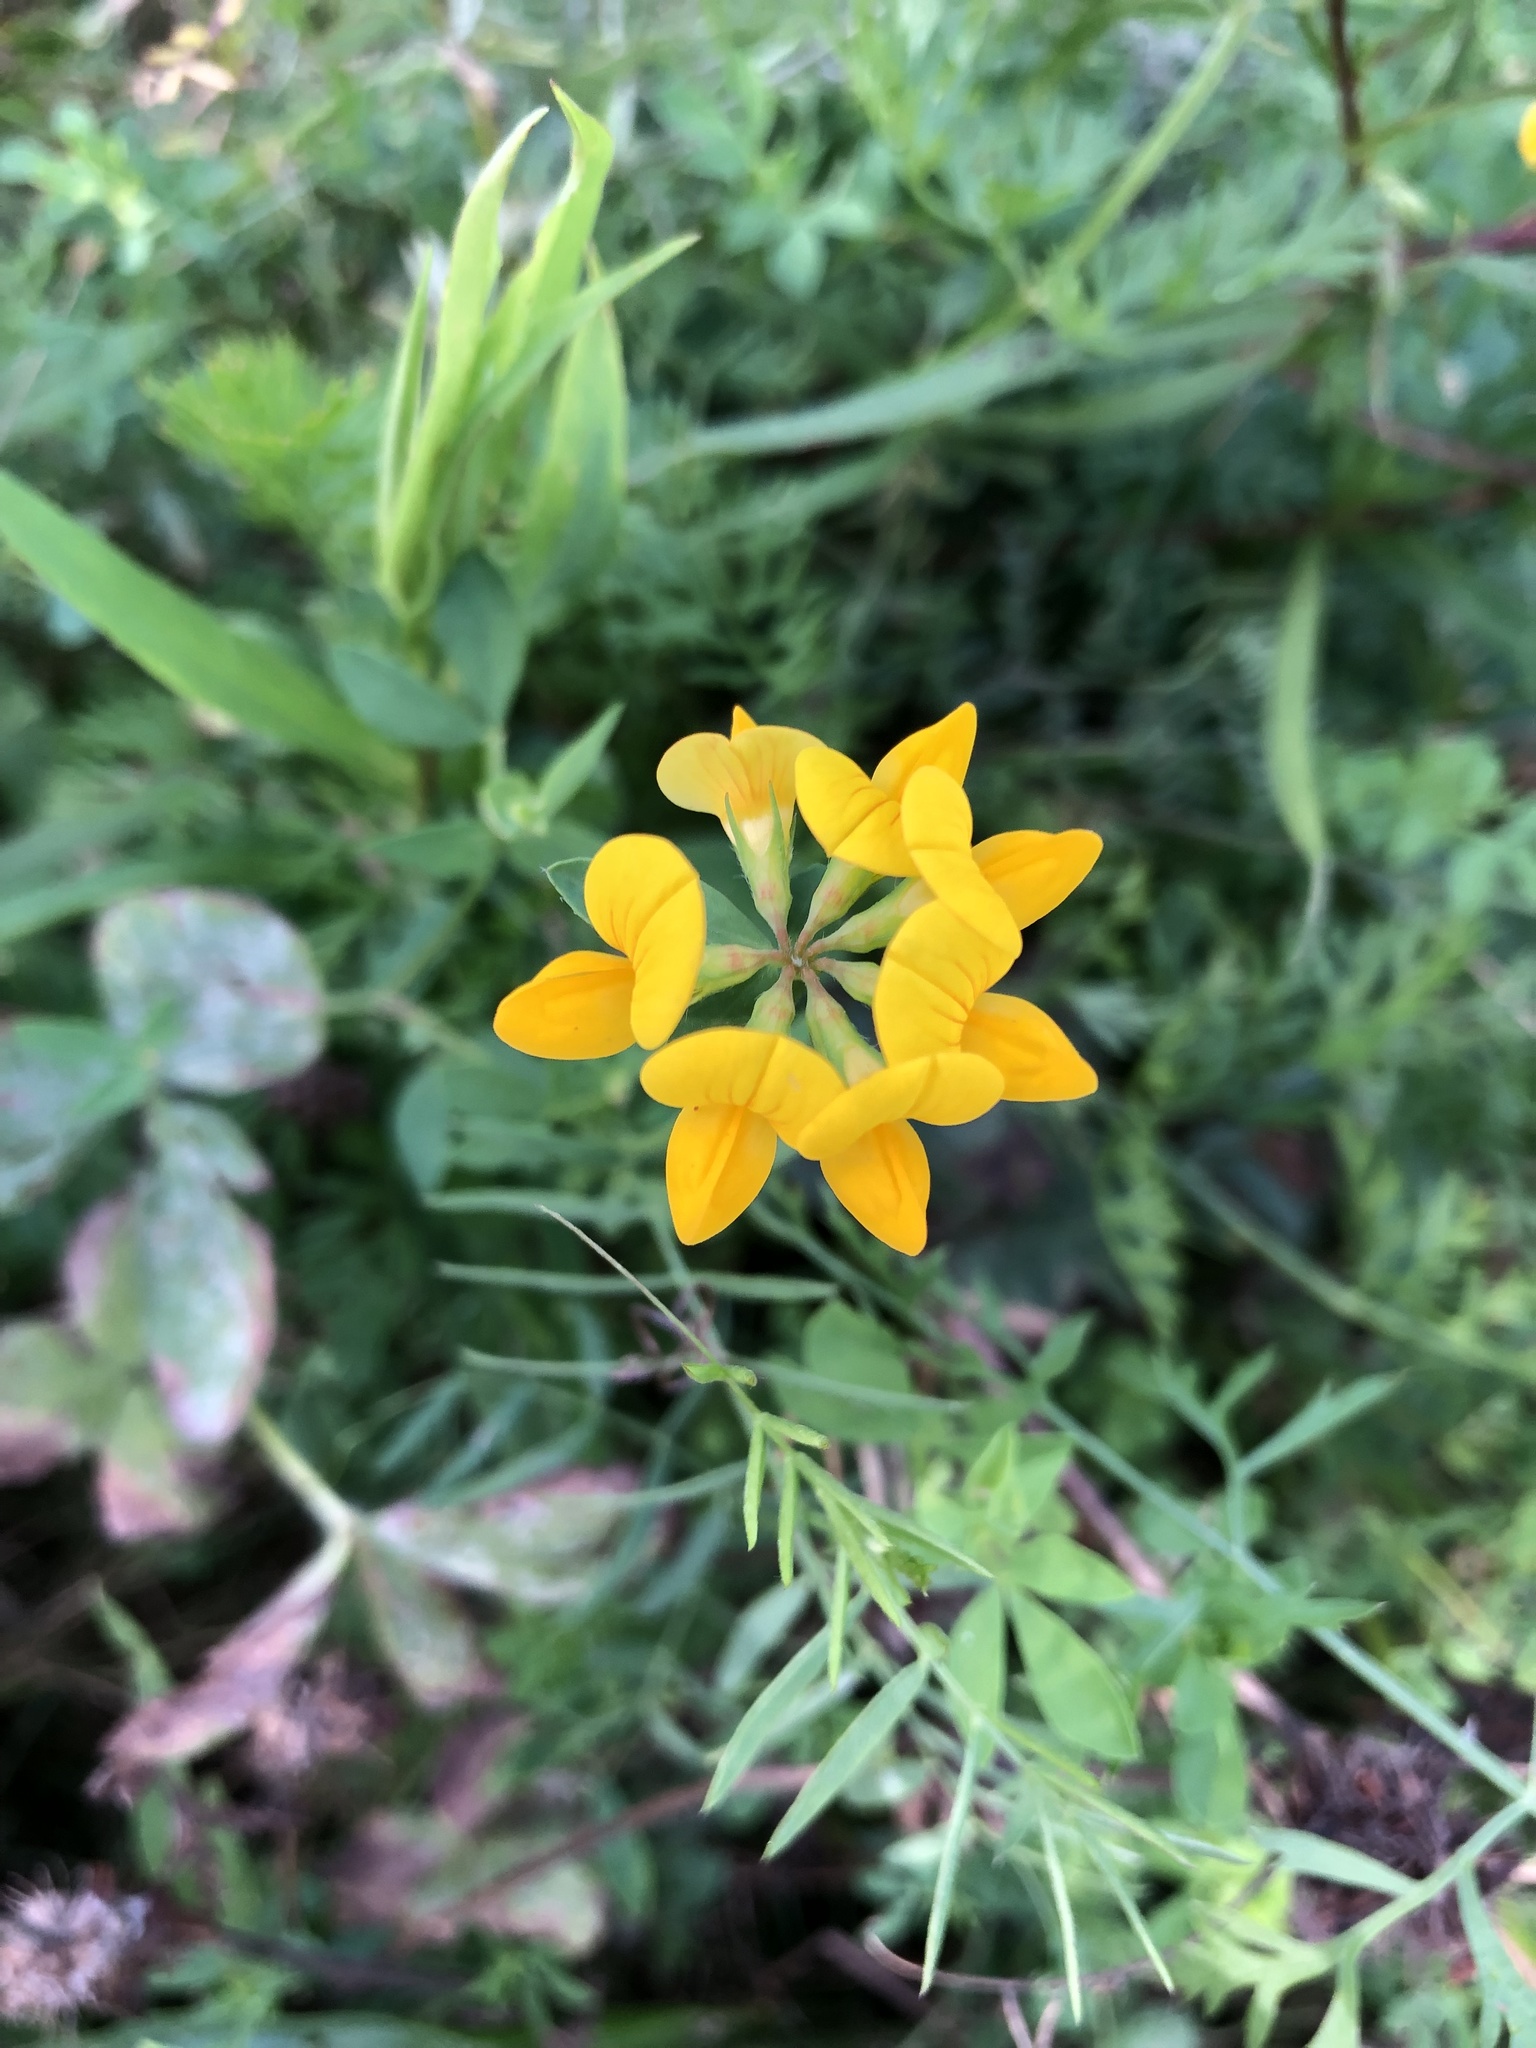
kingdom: Plantae
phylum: Tracheophyta
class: Magnoliopsida
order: Fabales
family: Fabaceae
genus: Lotus
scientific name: Lotus corniculatus
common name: Common bird's-foot-trefoil
